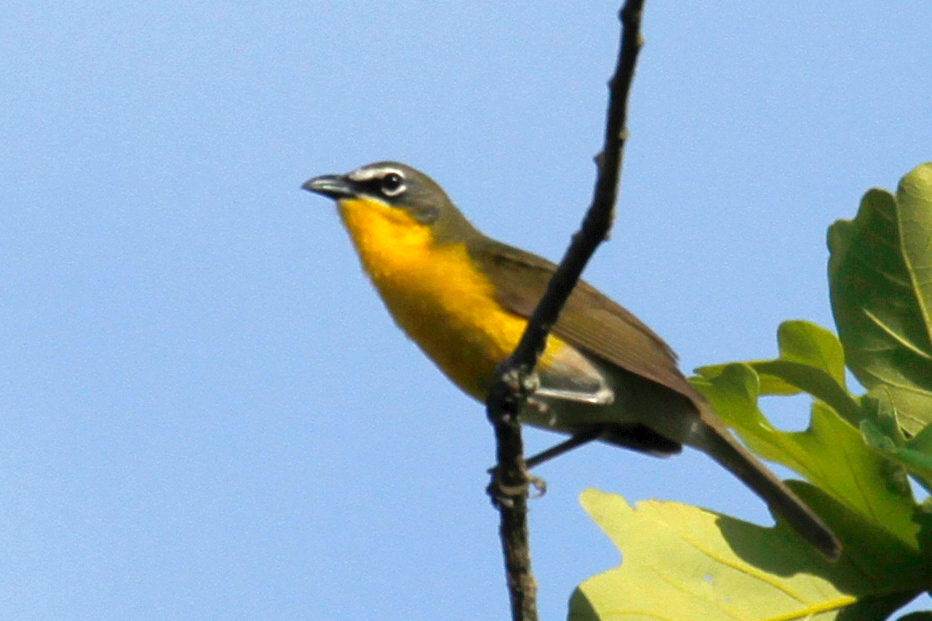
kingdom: Animalia
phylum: Chordata
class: Aves
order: Passeriformes
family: Parulidae
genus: Icteria
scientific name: Icteria virens
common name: Yellow-breasted chat
